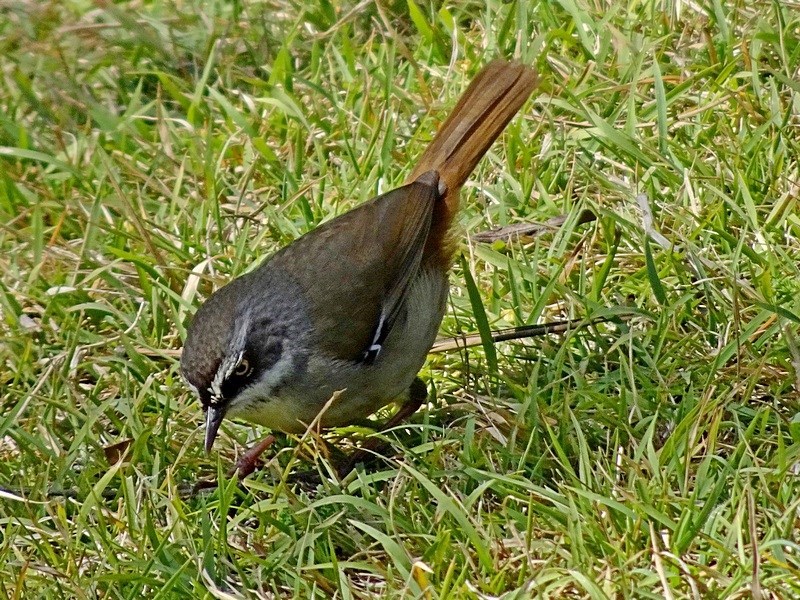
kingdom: Animalia
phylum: Chordata
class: Aves
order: Passeriformes
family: Acanthizidae
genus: Sericornis
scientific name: Sericornis frontalis
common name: White-browed scrubwren
